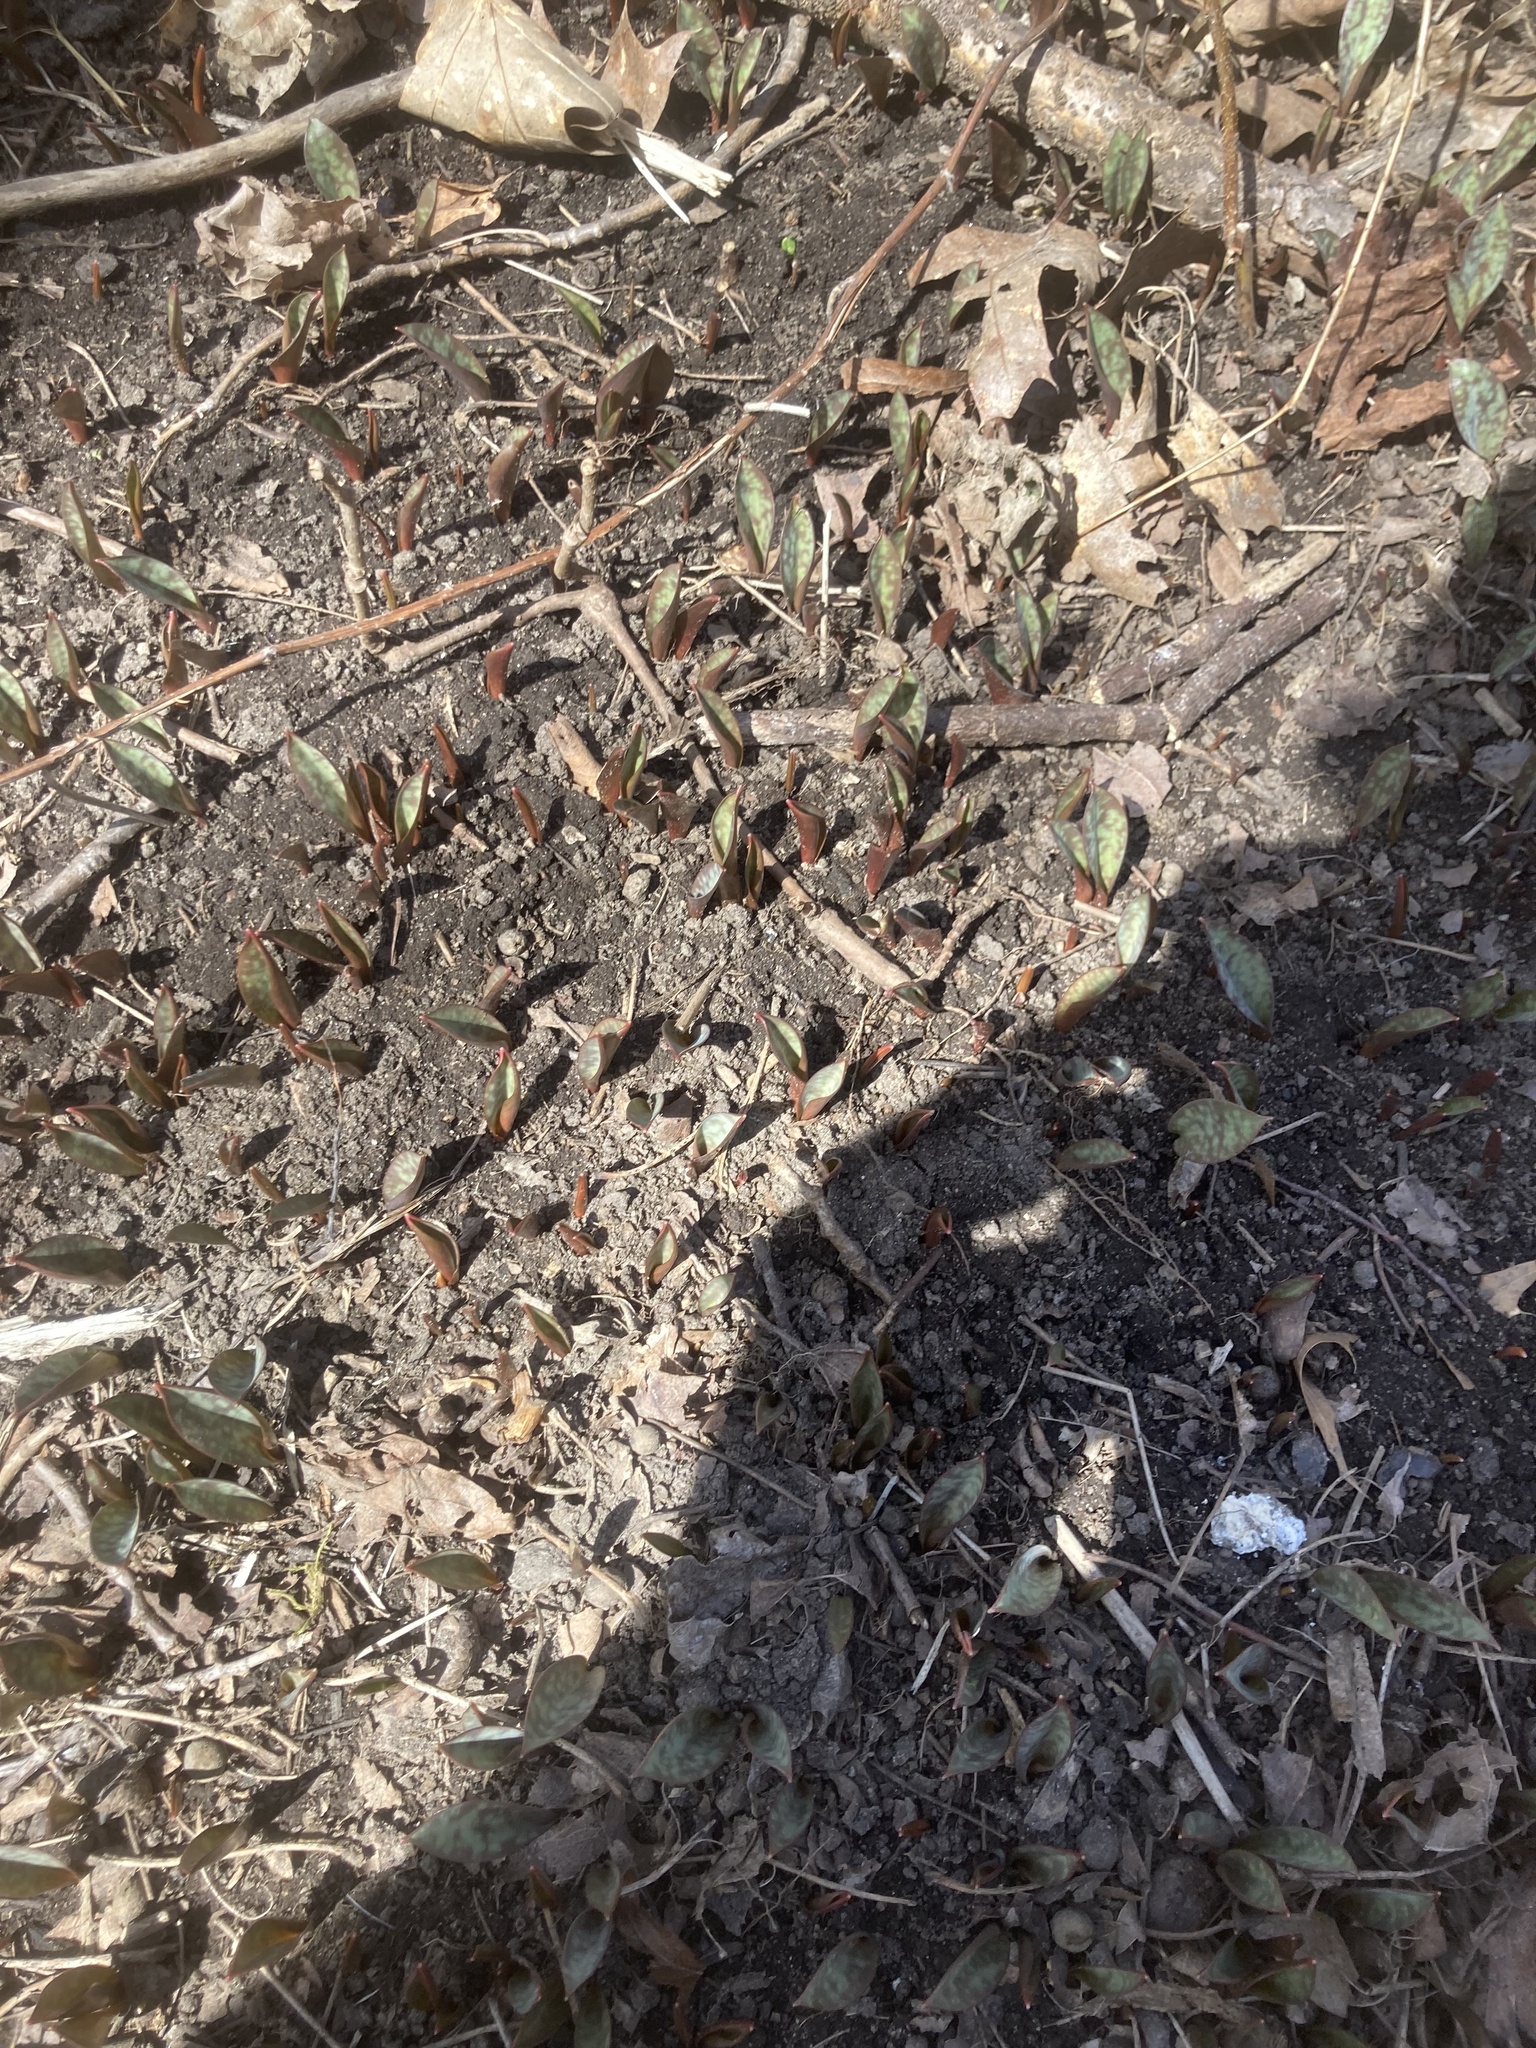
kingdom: Plantae
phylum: Tracheophyta
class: Liliopsida
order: Liliales
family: Liliaceae
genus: Erythronium
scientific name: Erythronium americanum
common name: Yellow adder's-tongue
